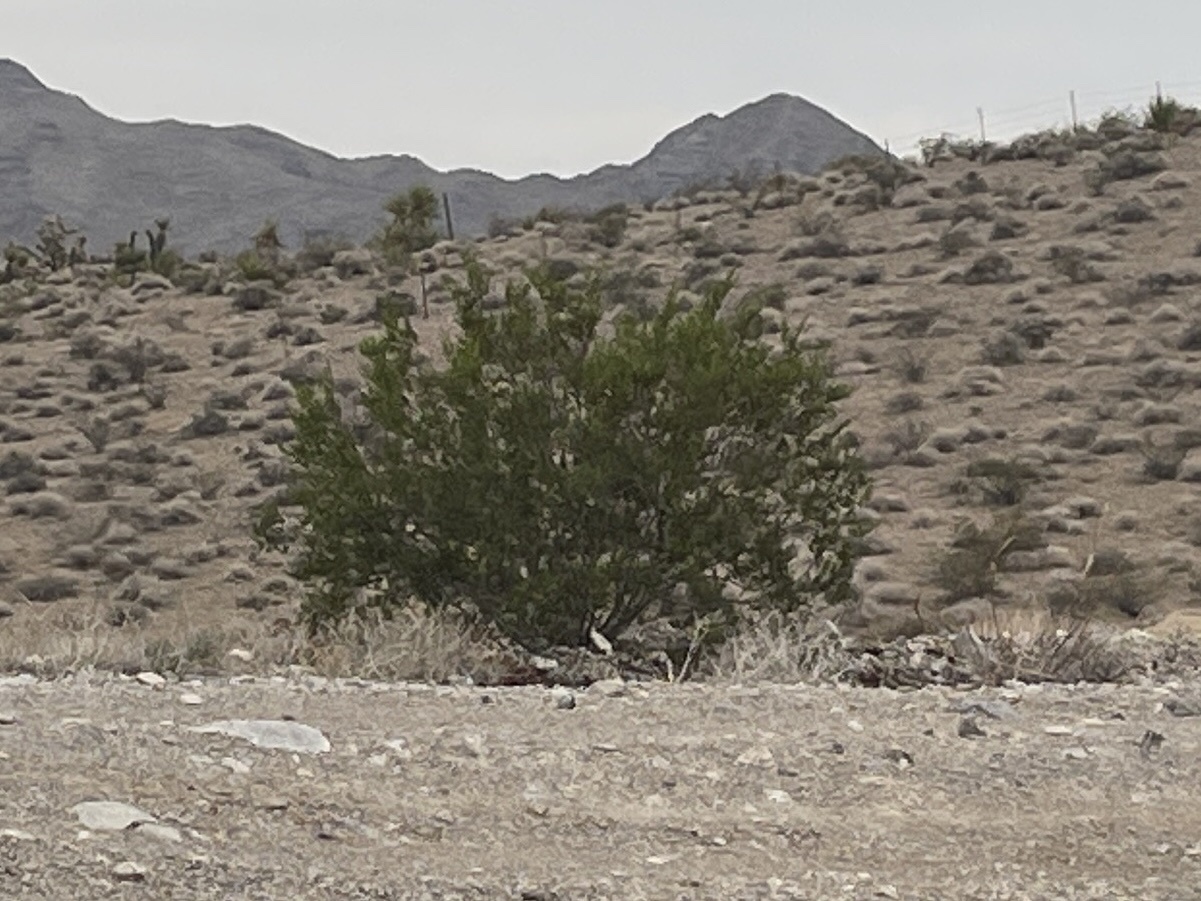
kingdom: Plantae
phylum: Tracheophyta
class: Magnoliopsida
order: Zygophyllales
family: Zygophyllaceae
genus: Larrea
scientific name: Larrea tridentata
